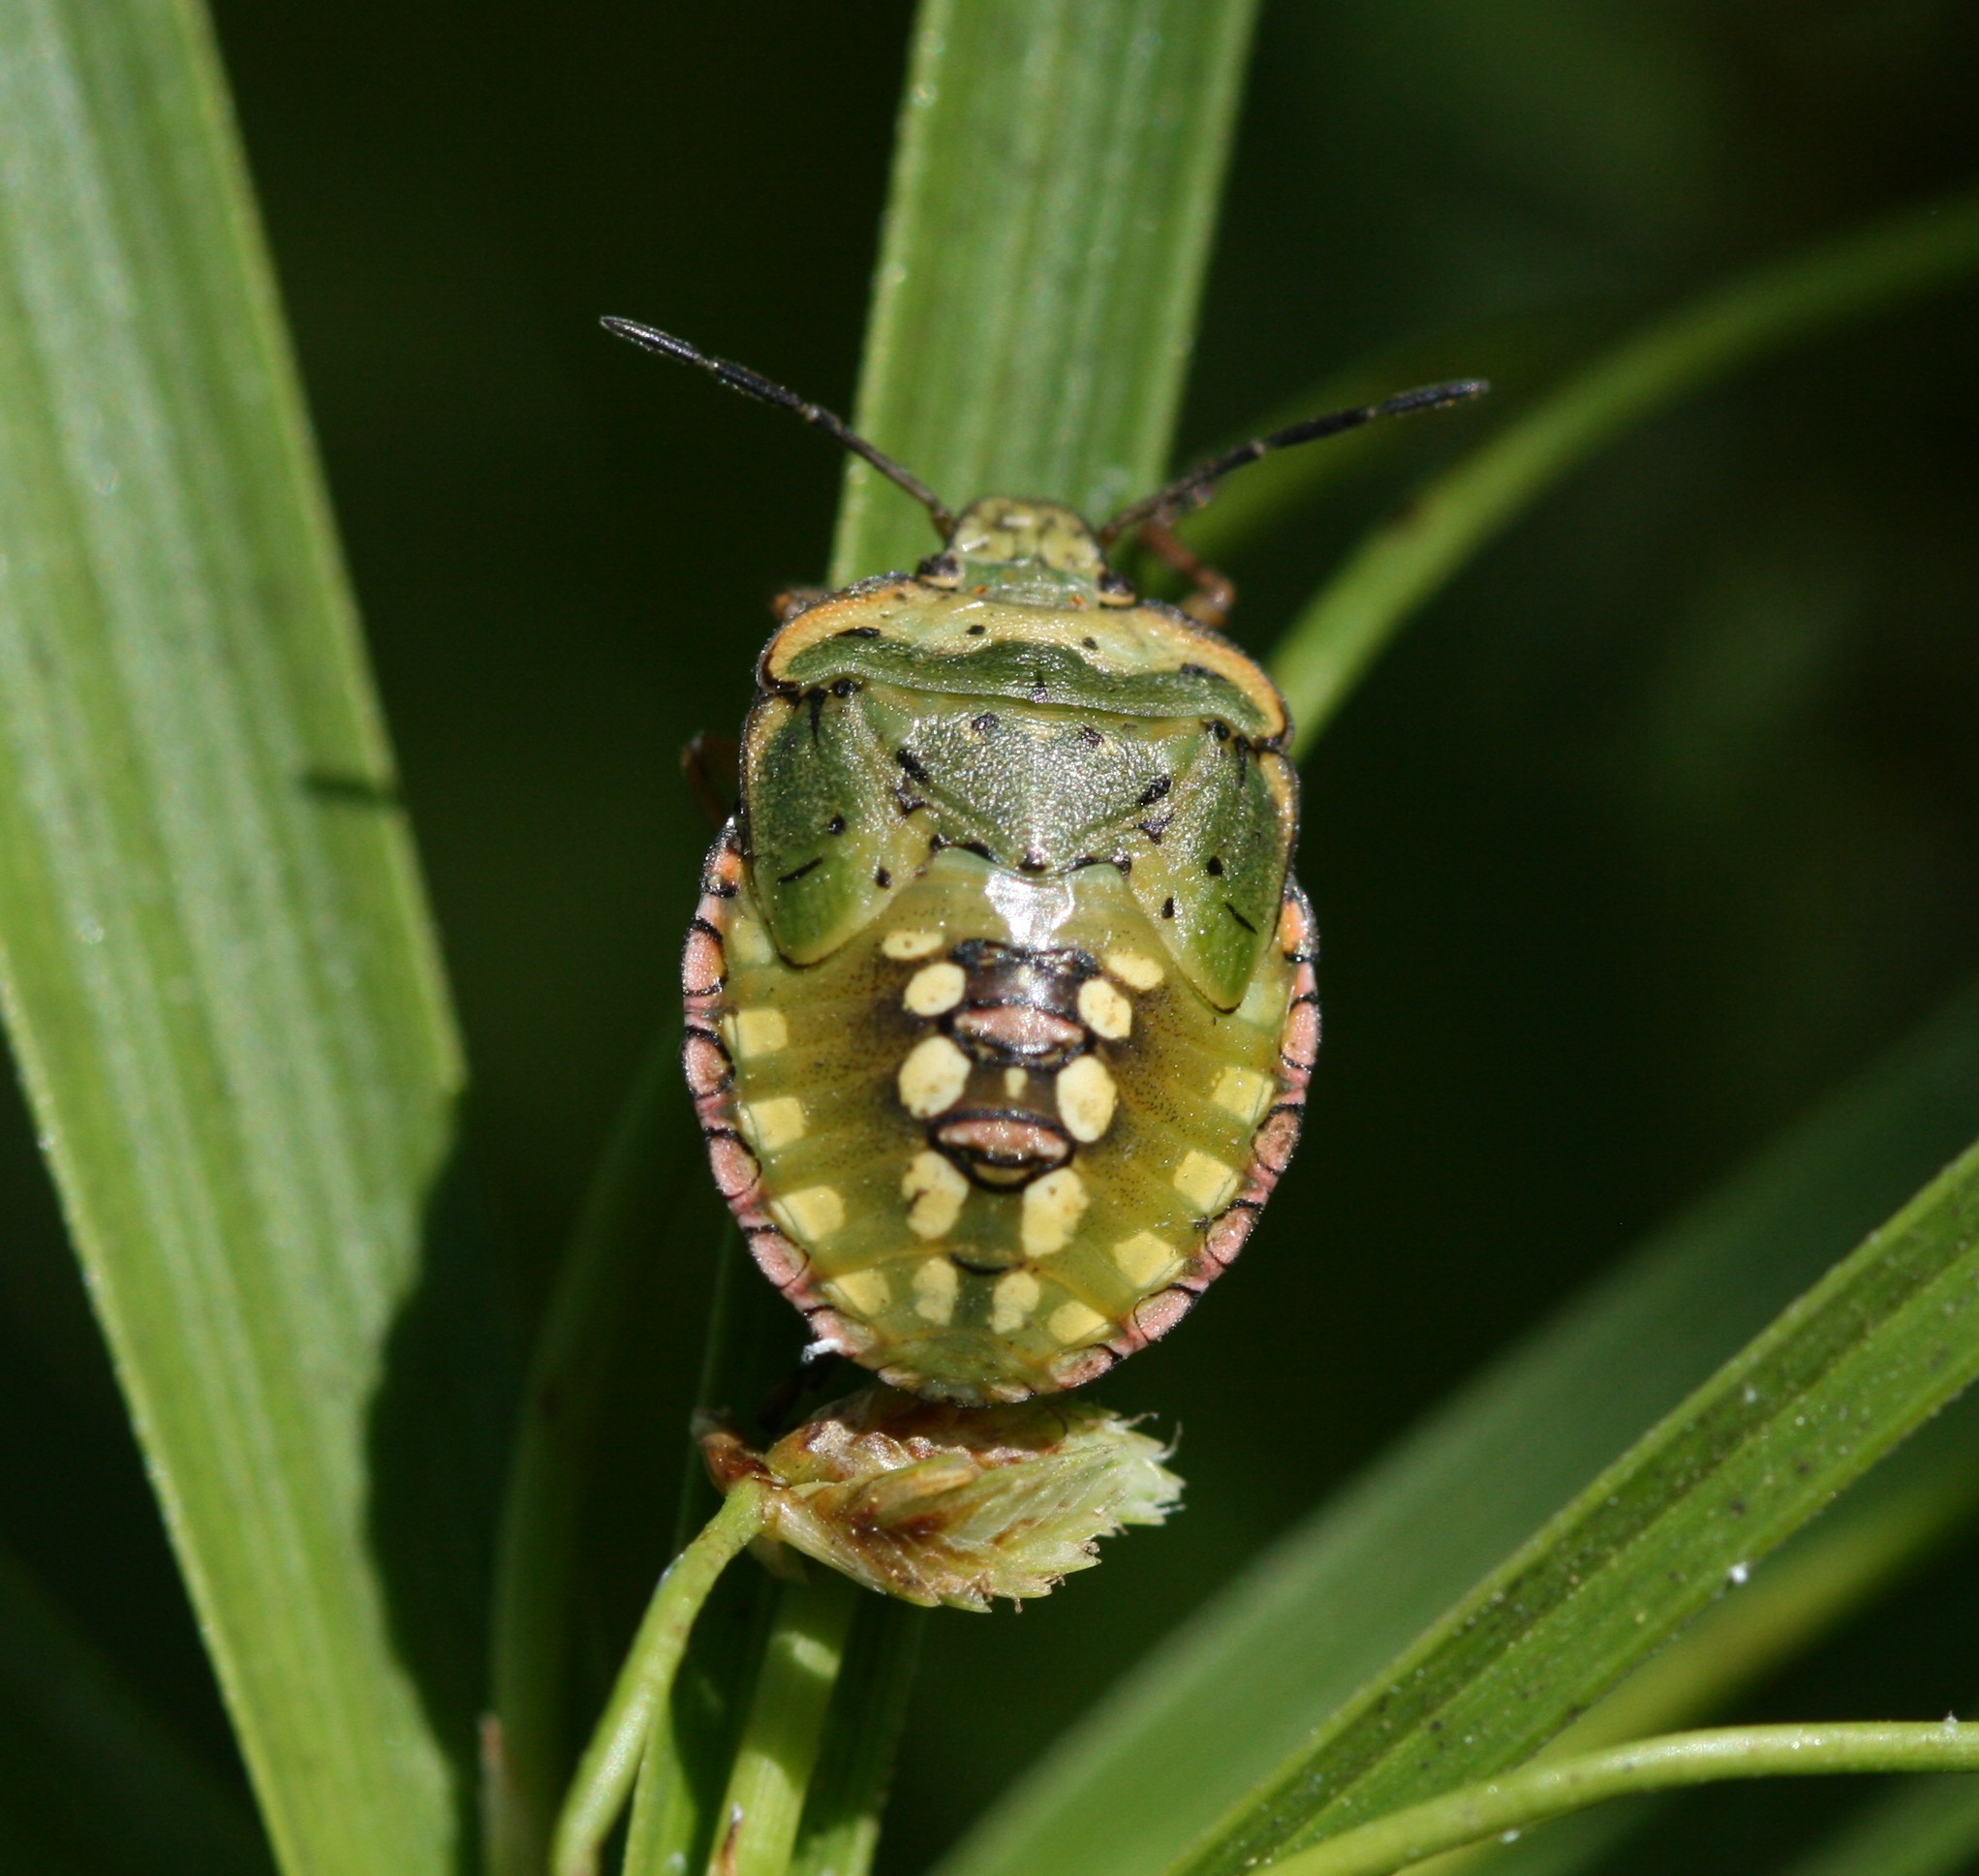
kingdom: Animalia
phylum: Arthropoda
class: Insecta
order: Hemiptera
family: Pentatomidae
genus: Nezara
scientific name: Nezara viridula
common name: Southern green stink bug
